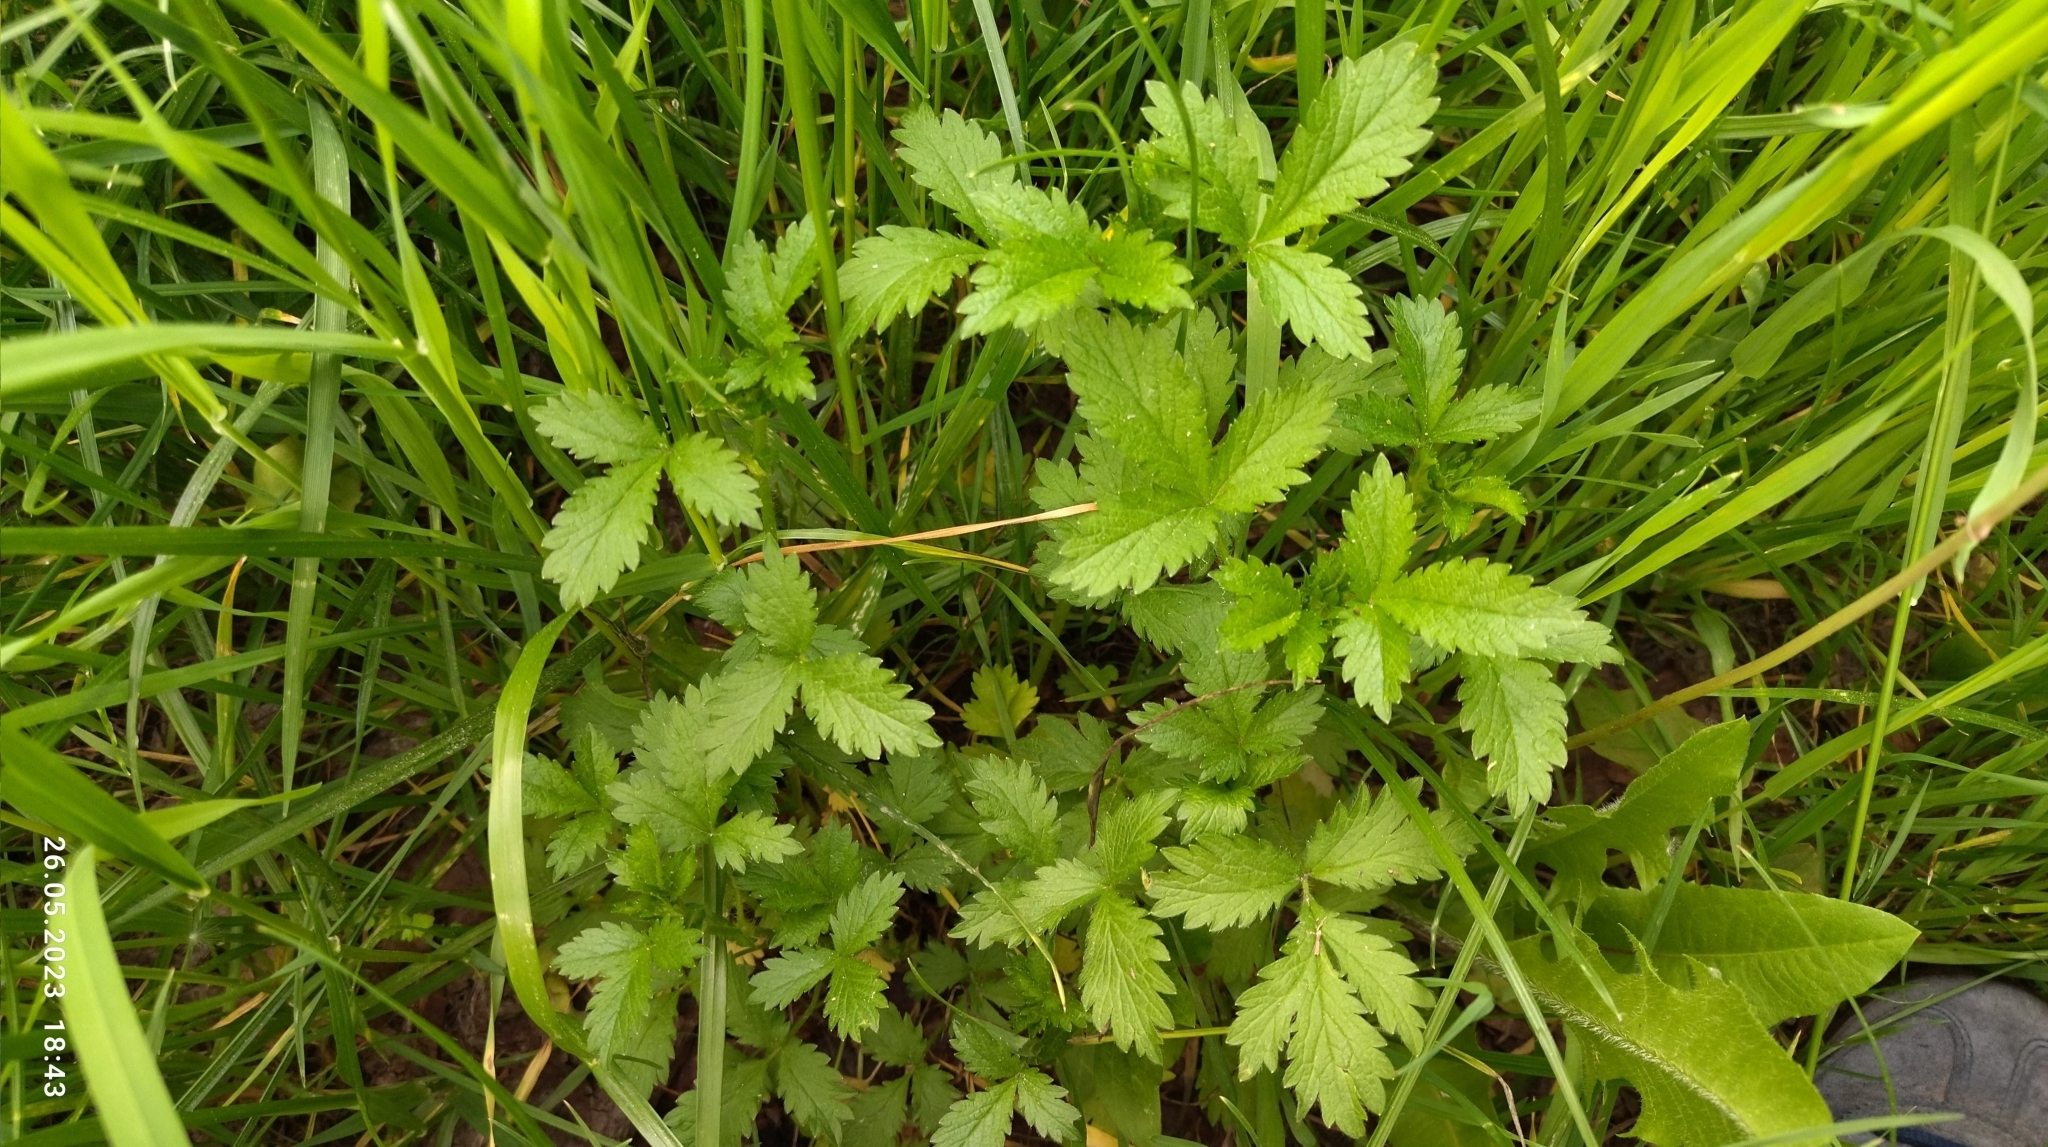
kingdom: Plantae
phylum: Tracheophyta
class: Magnoliopsida
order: Rosales
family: Rosaceae
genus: Potentilla
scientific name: Potentilla norvegica
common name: Ternate-leaved cinquefoil
